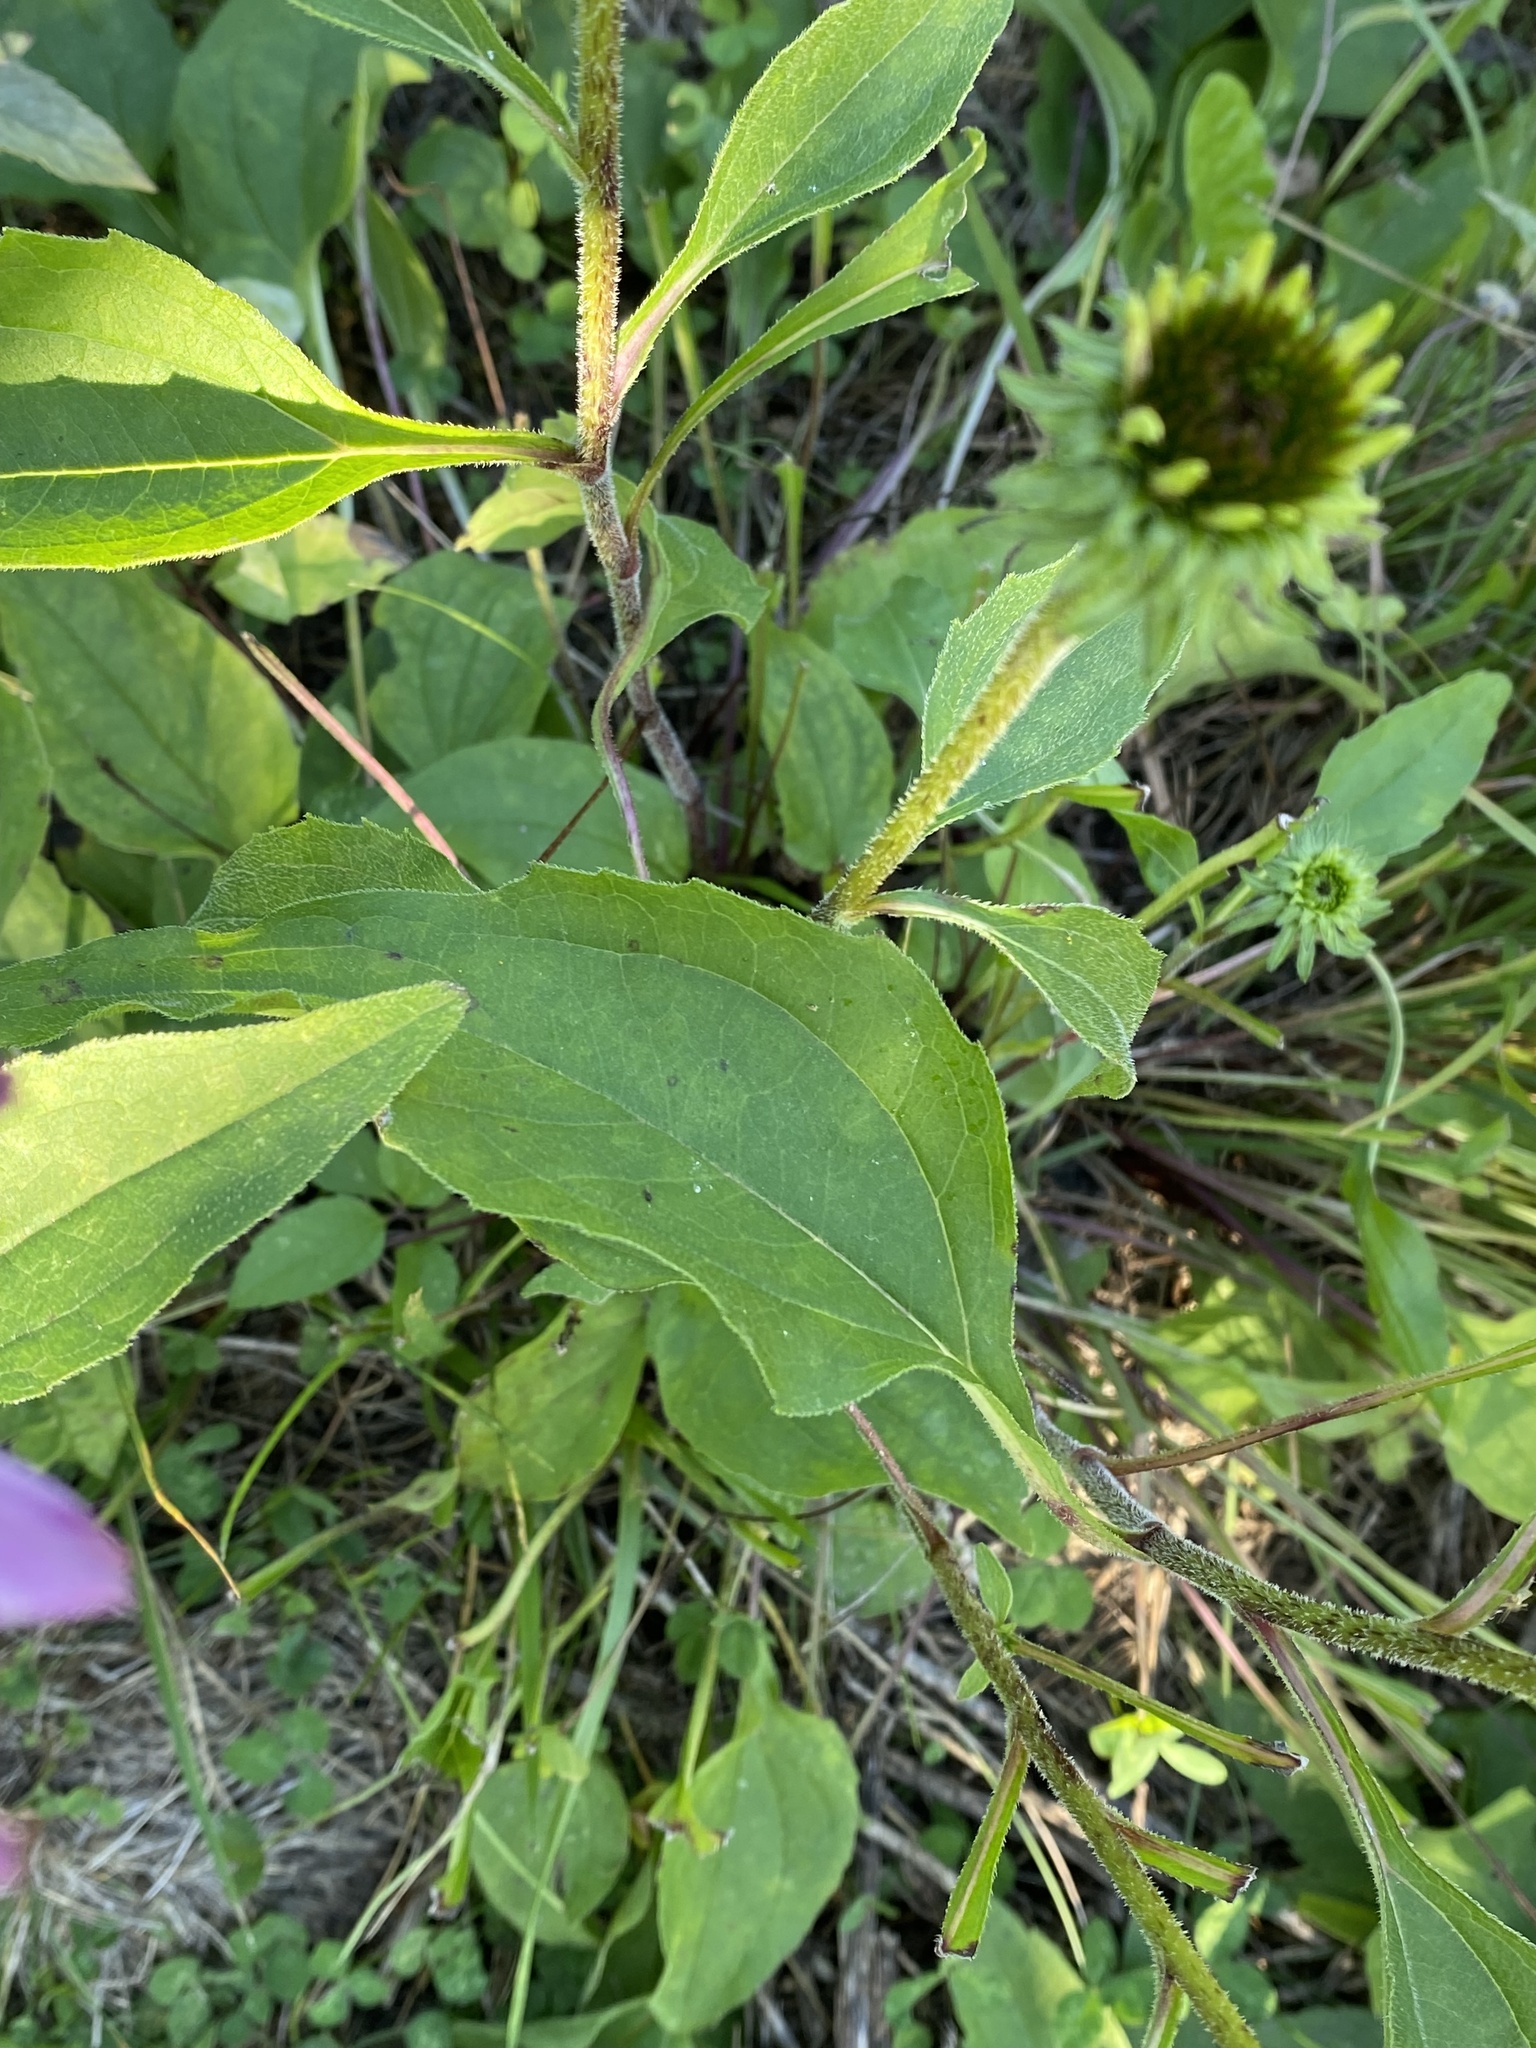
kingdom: Plantae
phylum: Tracheophyta
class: Magnoliopsida
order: Asterales
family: Asteraceae
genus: Echinacea
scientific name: Echinacea purpurea
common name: Broad-leaved purple coneflower
